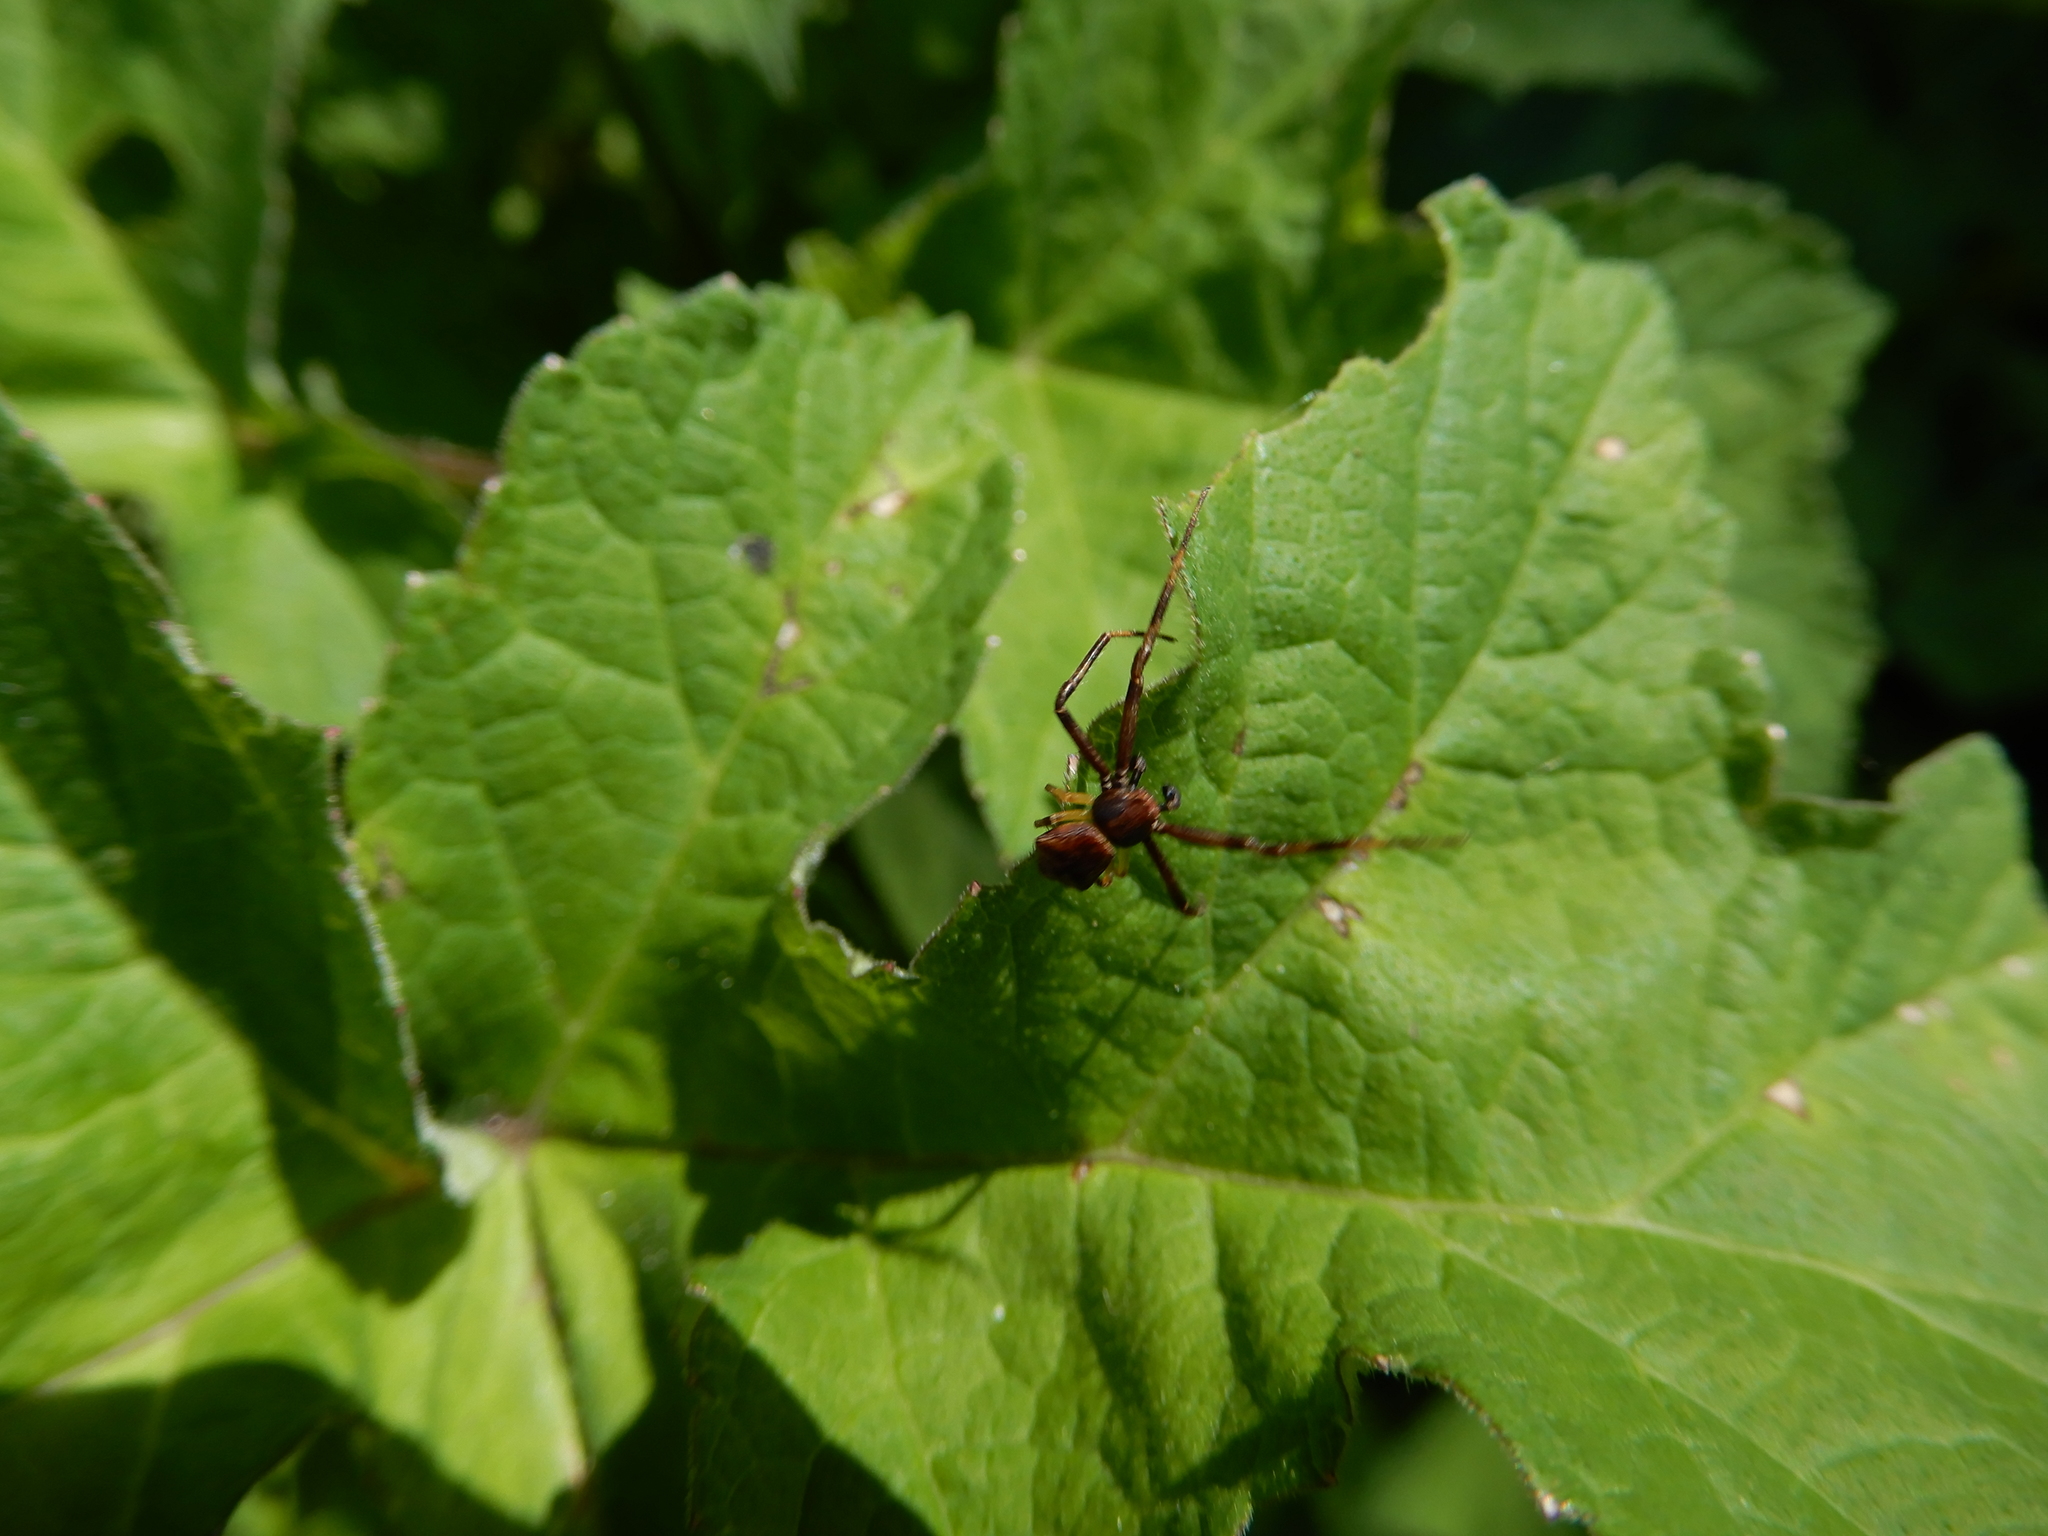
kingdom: Animalia
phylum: Arthropoda
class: Arachnida
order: Araneae
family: Thomisidae
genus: Pistius
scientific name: Pistius truncatus
